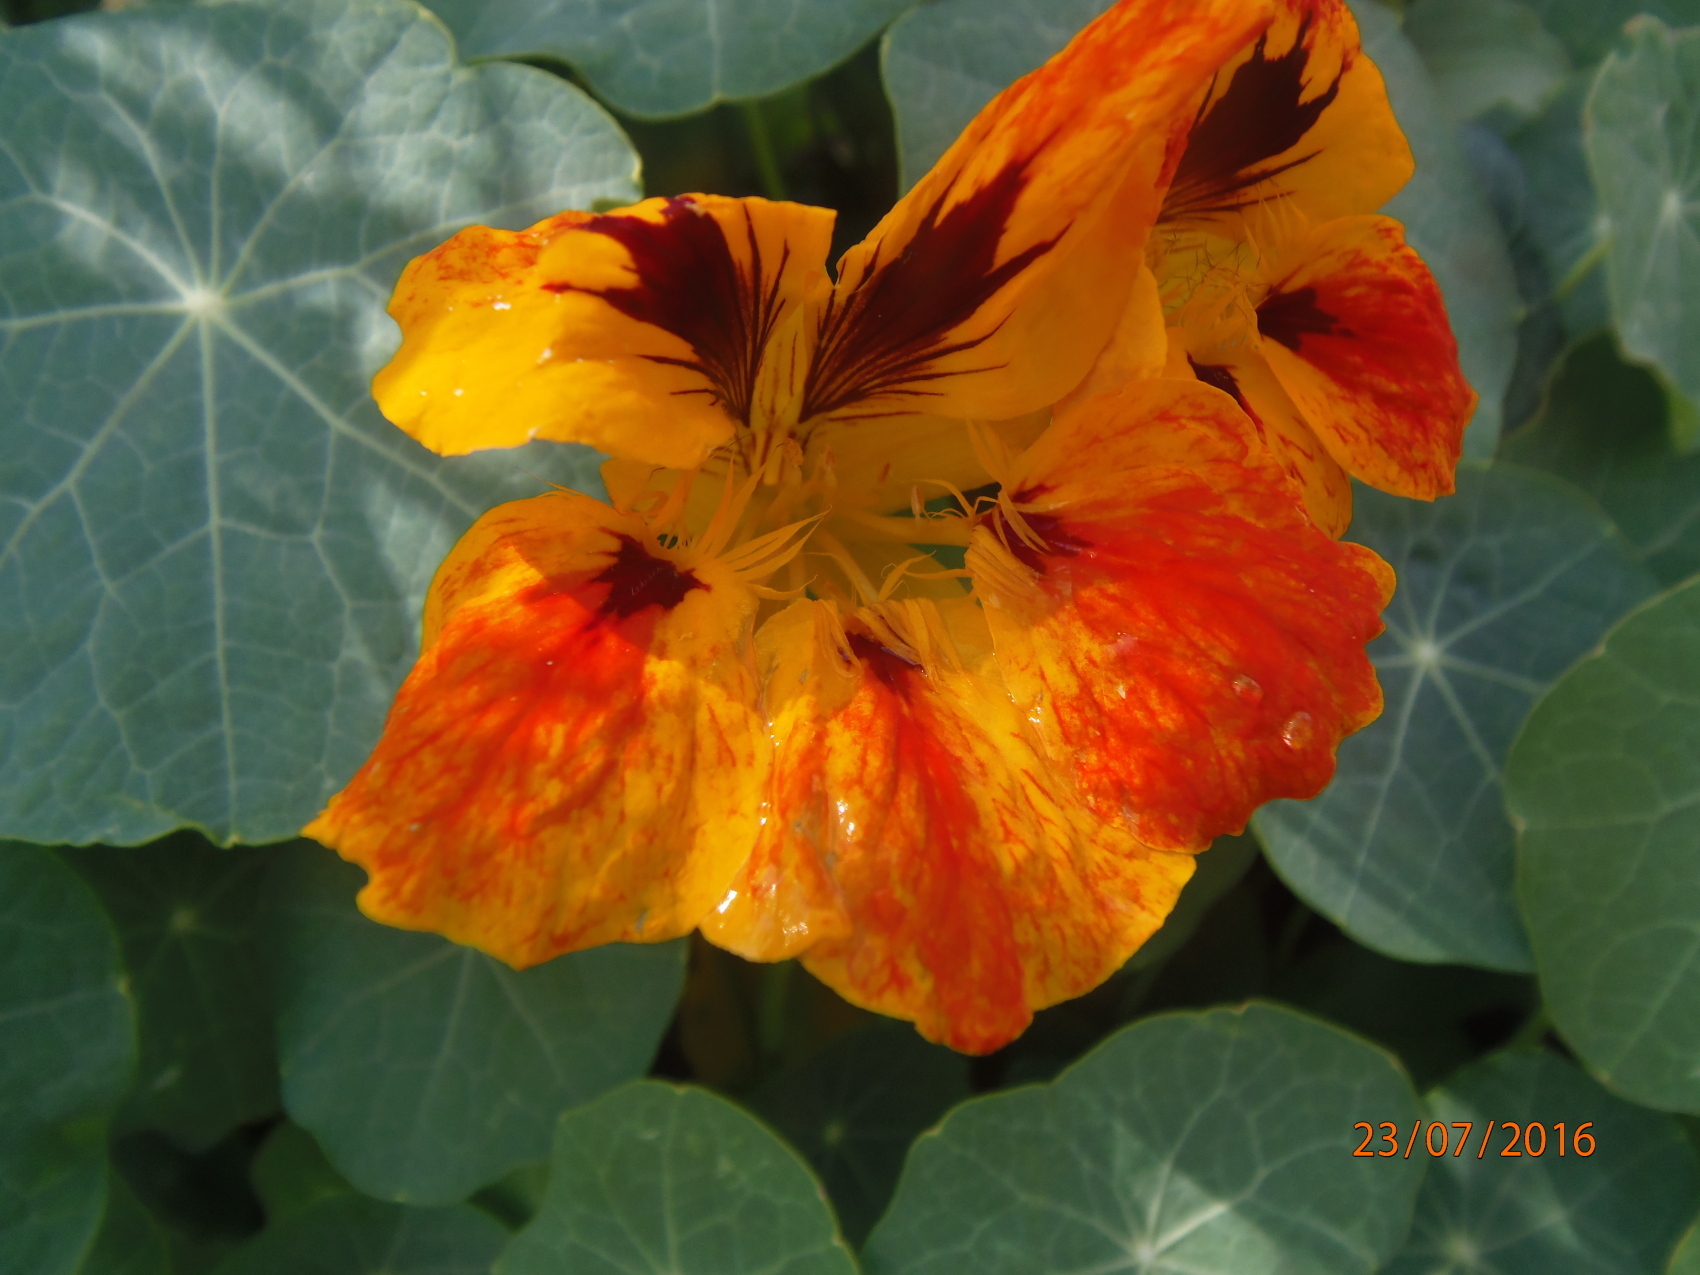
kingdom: Plantae
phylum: Tracheophyta
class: Magnoliopsida
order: Brassicales
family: Tropaeolaceae
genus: Tropaeolum
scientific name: Tropaeolum majus
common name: Nasturtium
